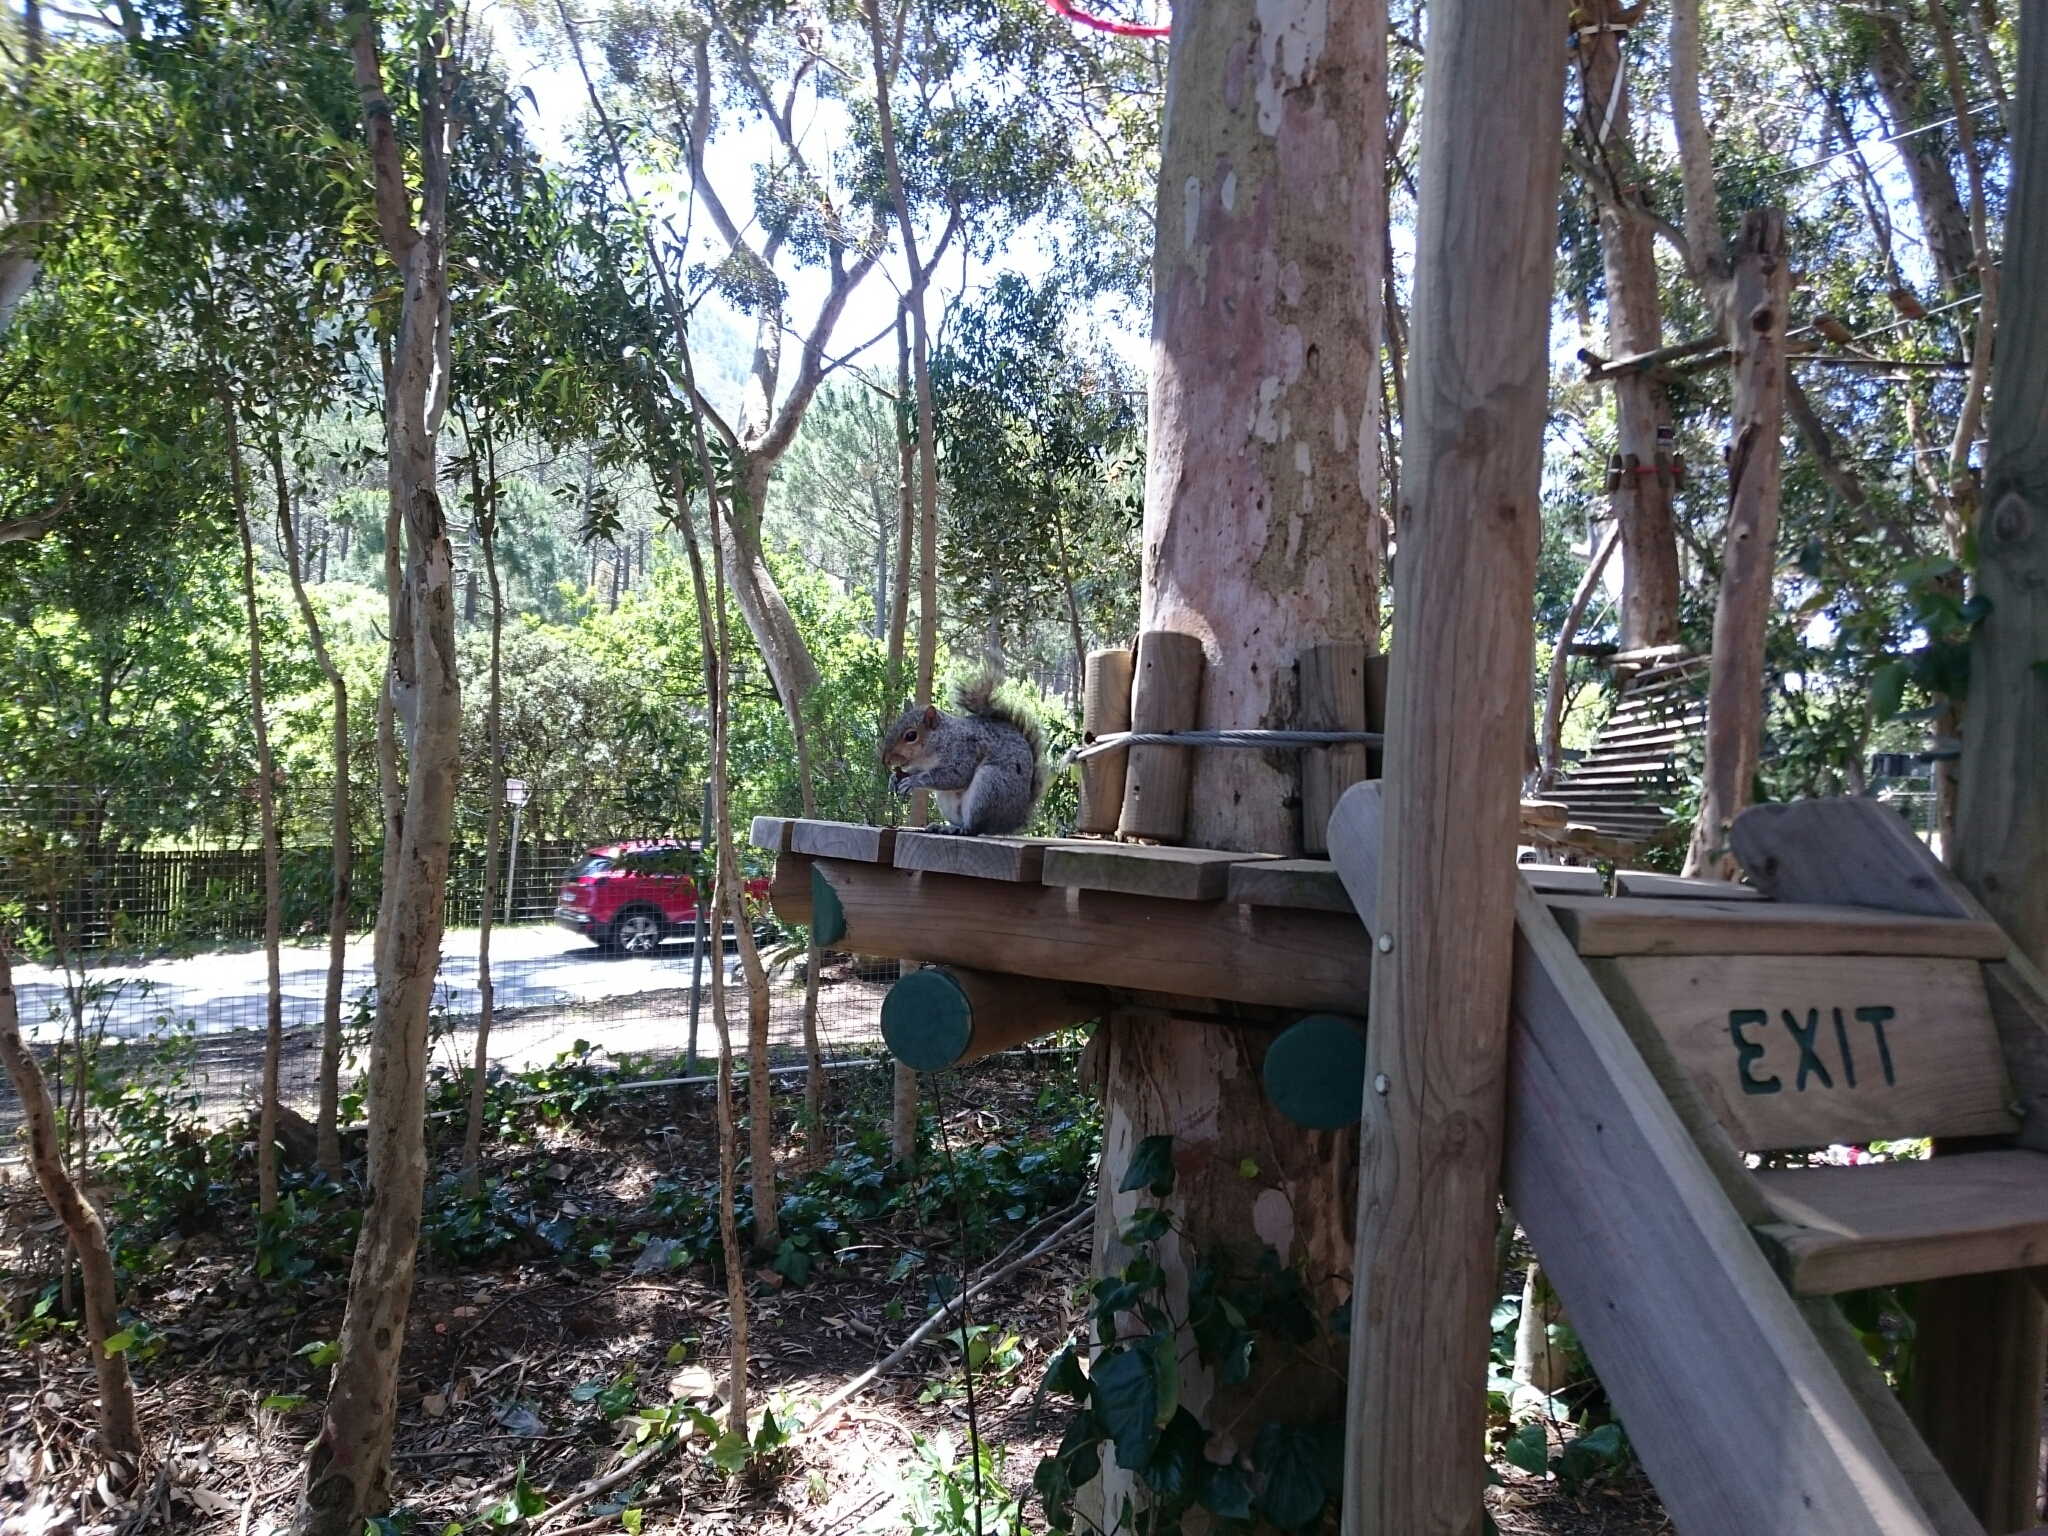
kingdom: Animalia
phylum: Chordata
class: Mammalia
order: Rodentia
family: Sciuridae
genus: Sciurus
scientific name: Sciurus carolinensis
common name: Eastern gray squirrel
